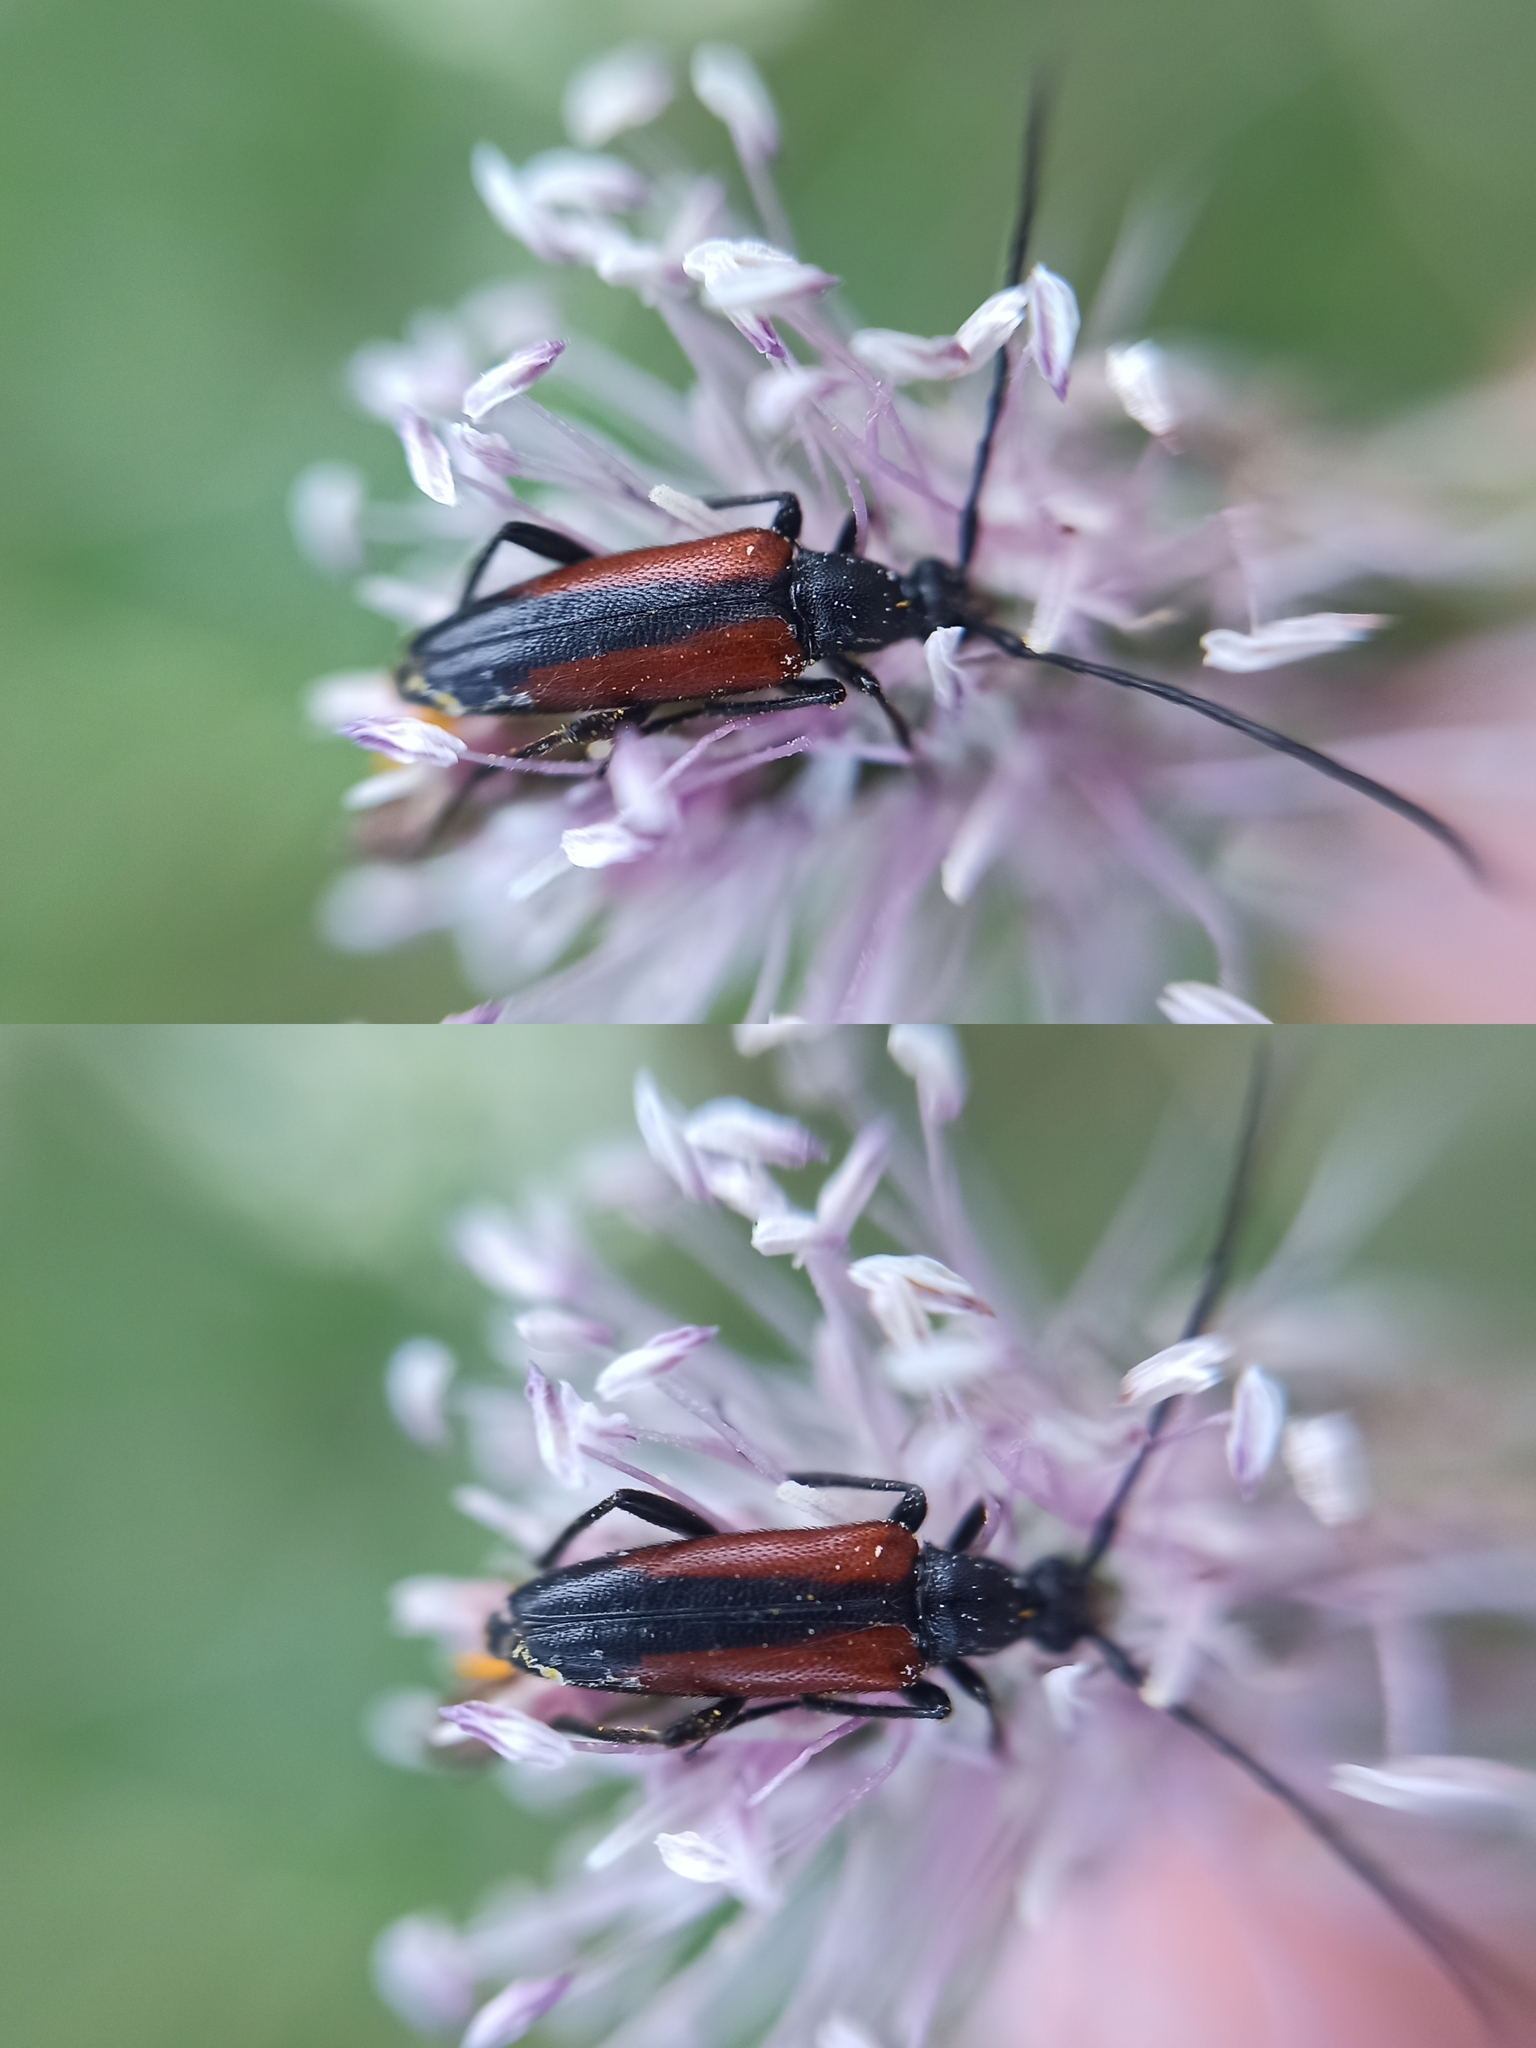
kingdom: Animalia
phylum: Arthropoda
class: Insecta
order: Coleoptera
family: Cerambycidae
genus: Stenurella
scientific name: Stenurella melanura
